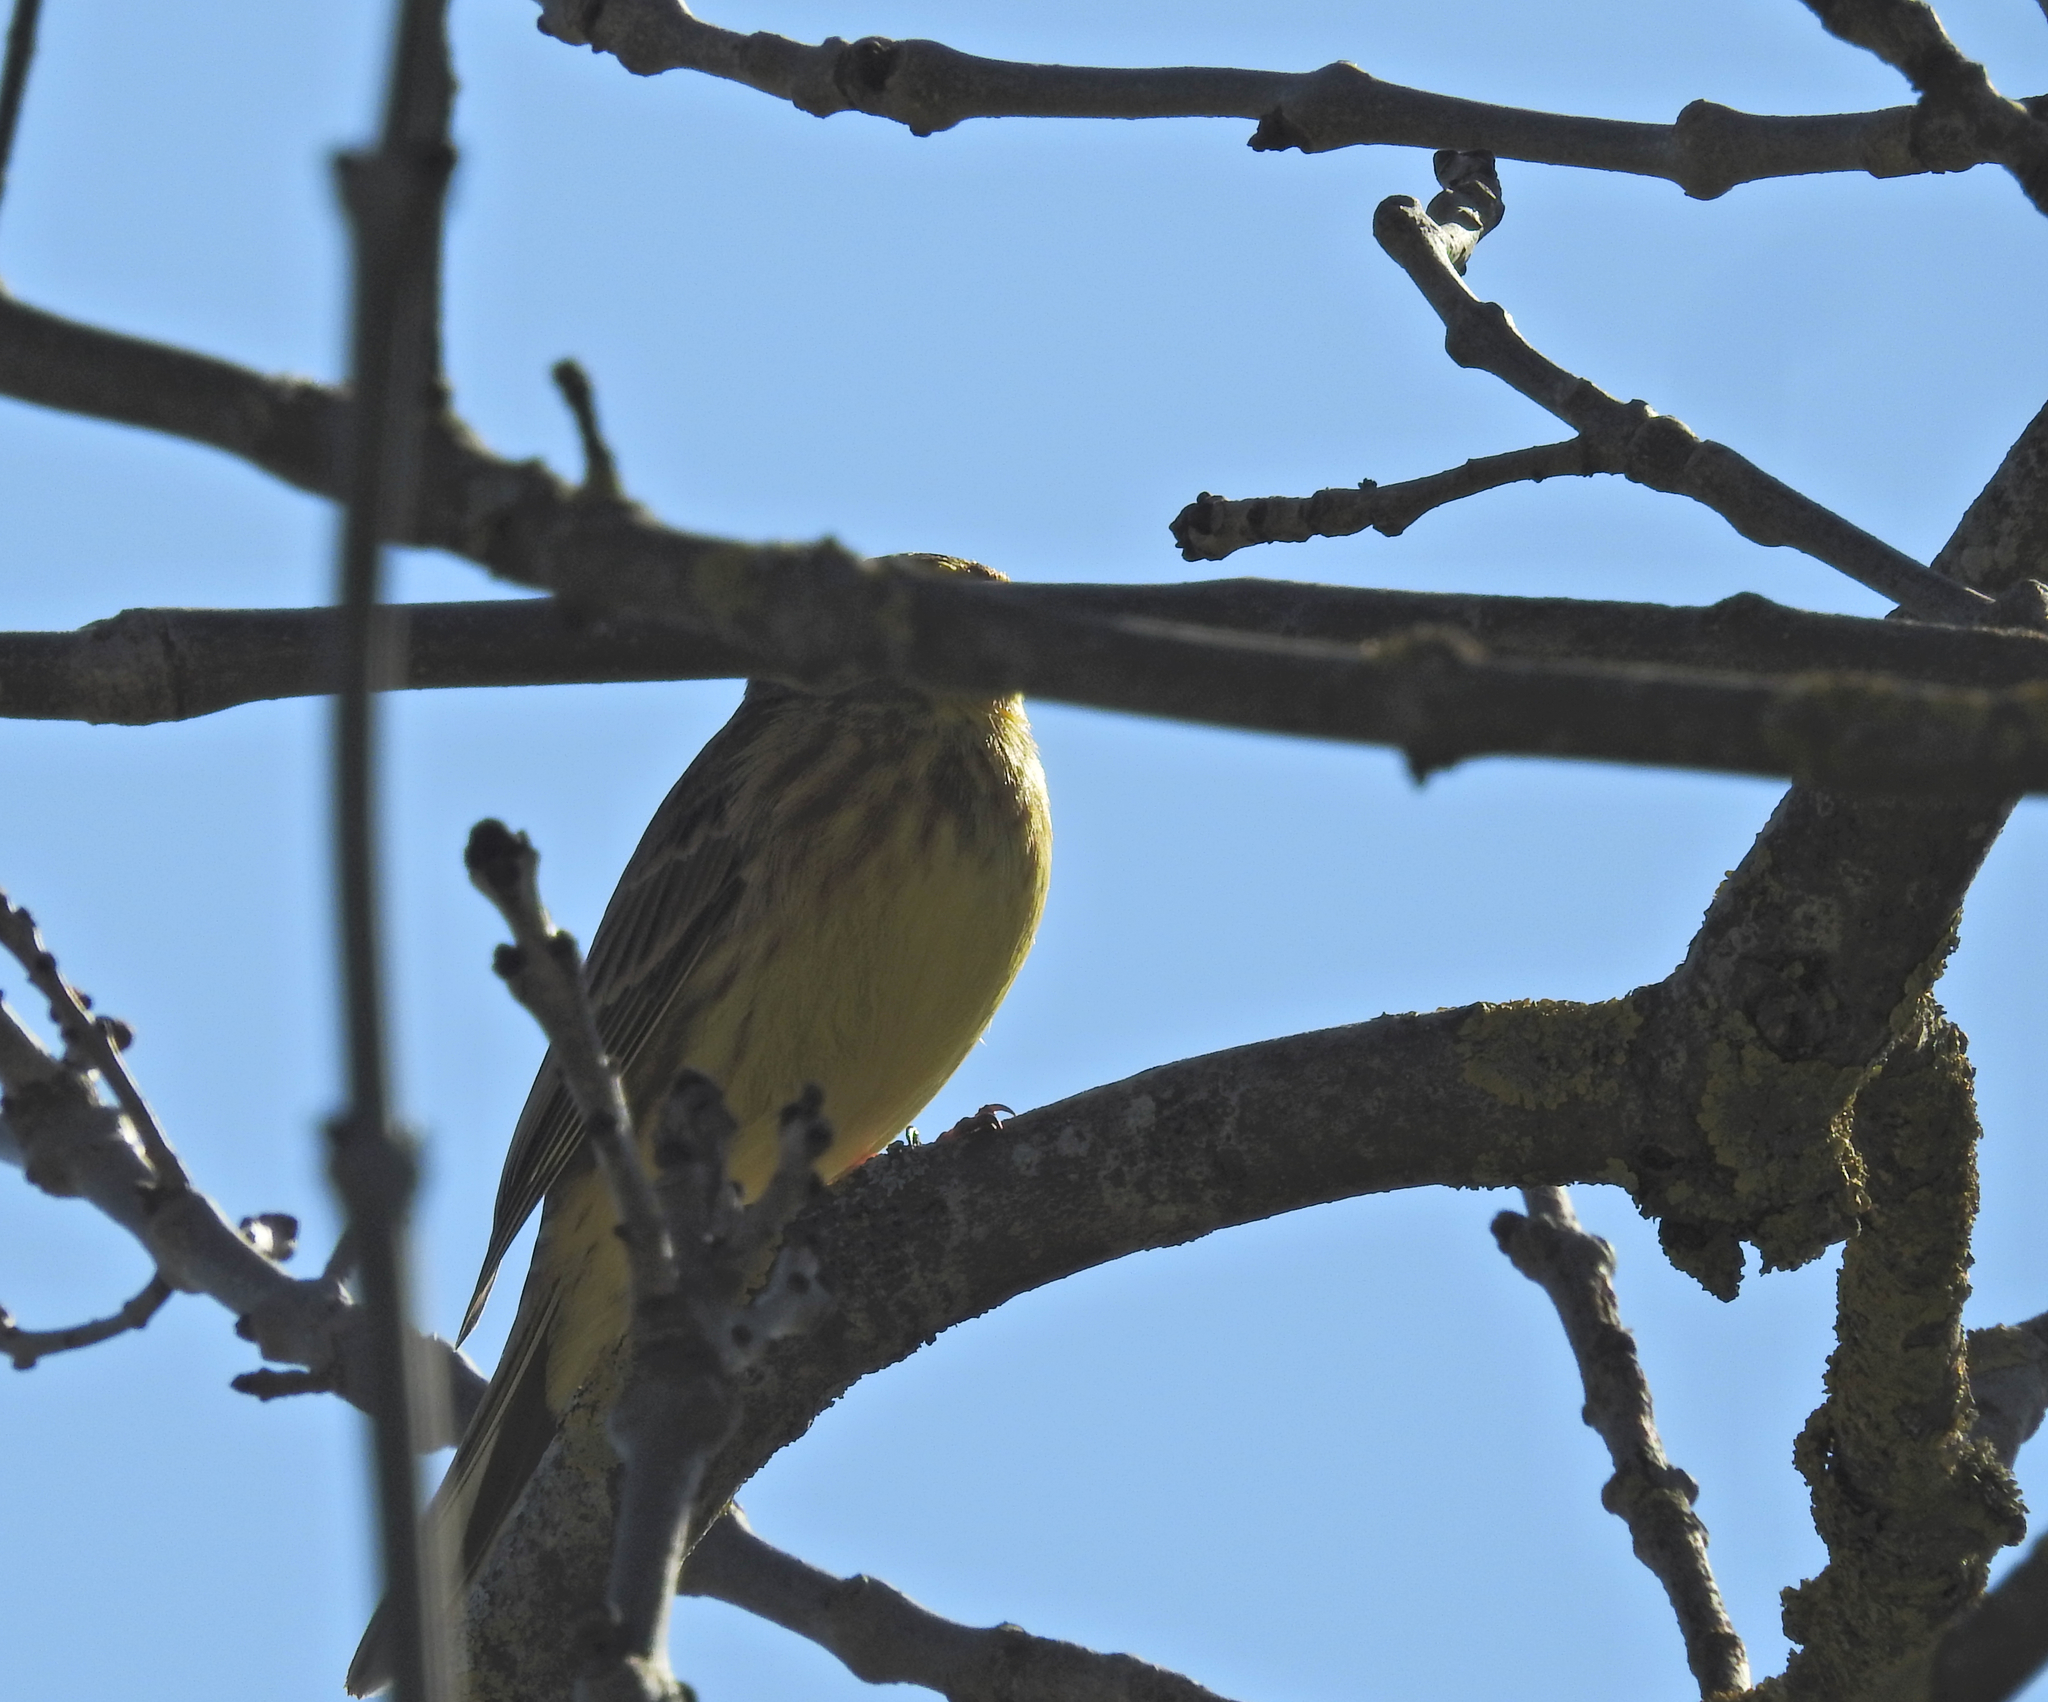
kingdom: Animalia
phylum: Chordata
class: Aves
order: Passeriformes
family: Emberizidae
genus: Emberiza
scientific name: Emberiza citrinella
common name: Yellowhammer
